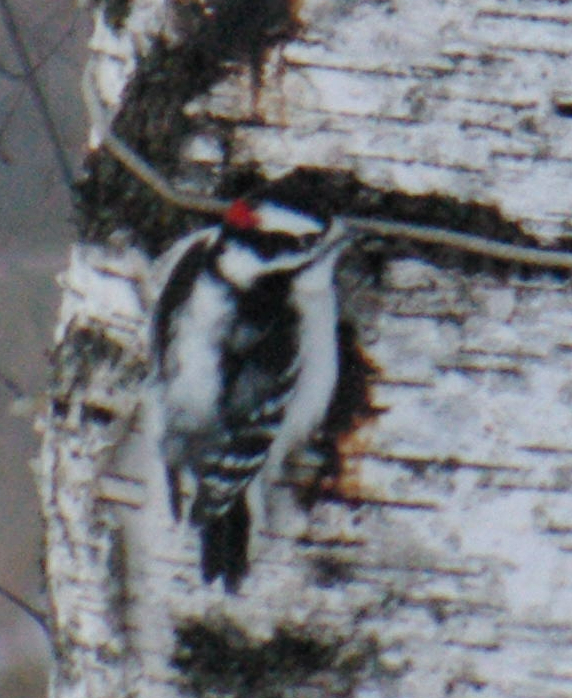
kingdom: Animalia
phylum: Chordata
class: Aves
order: Piciformes
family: Picidae
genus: Dryobates
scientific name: Dryobates pubescens
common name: Downy woodpecker
